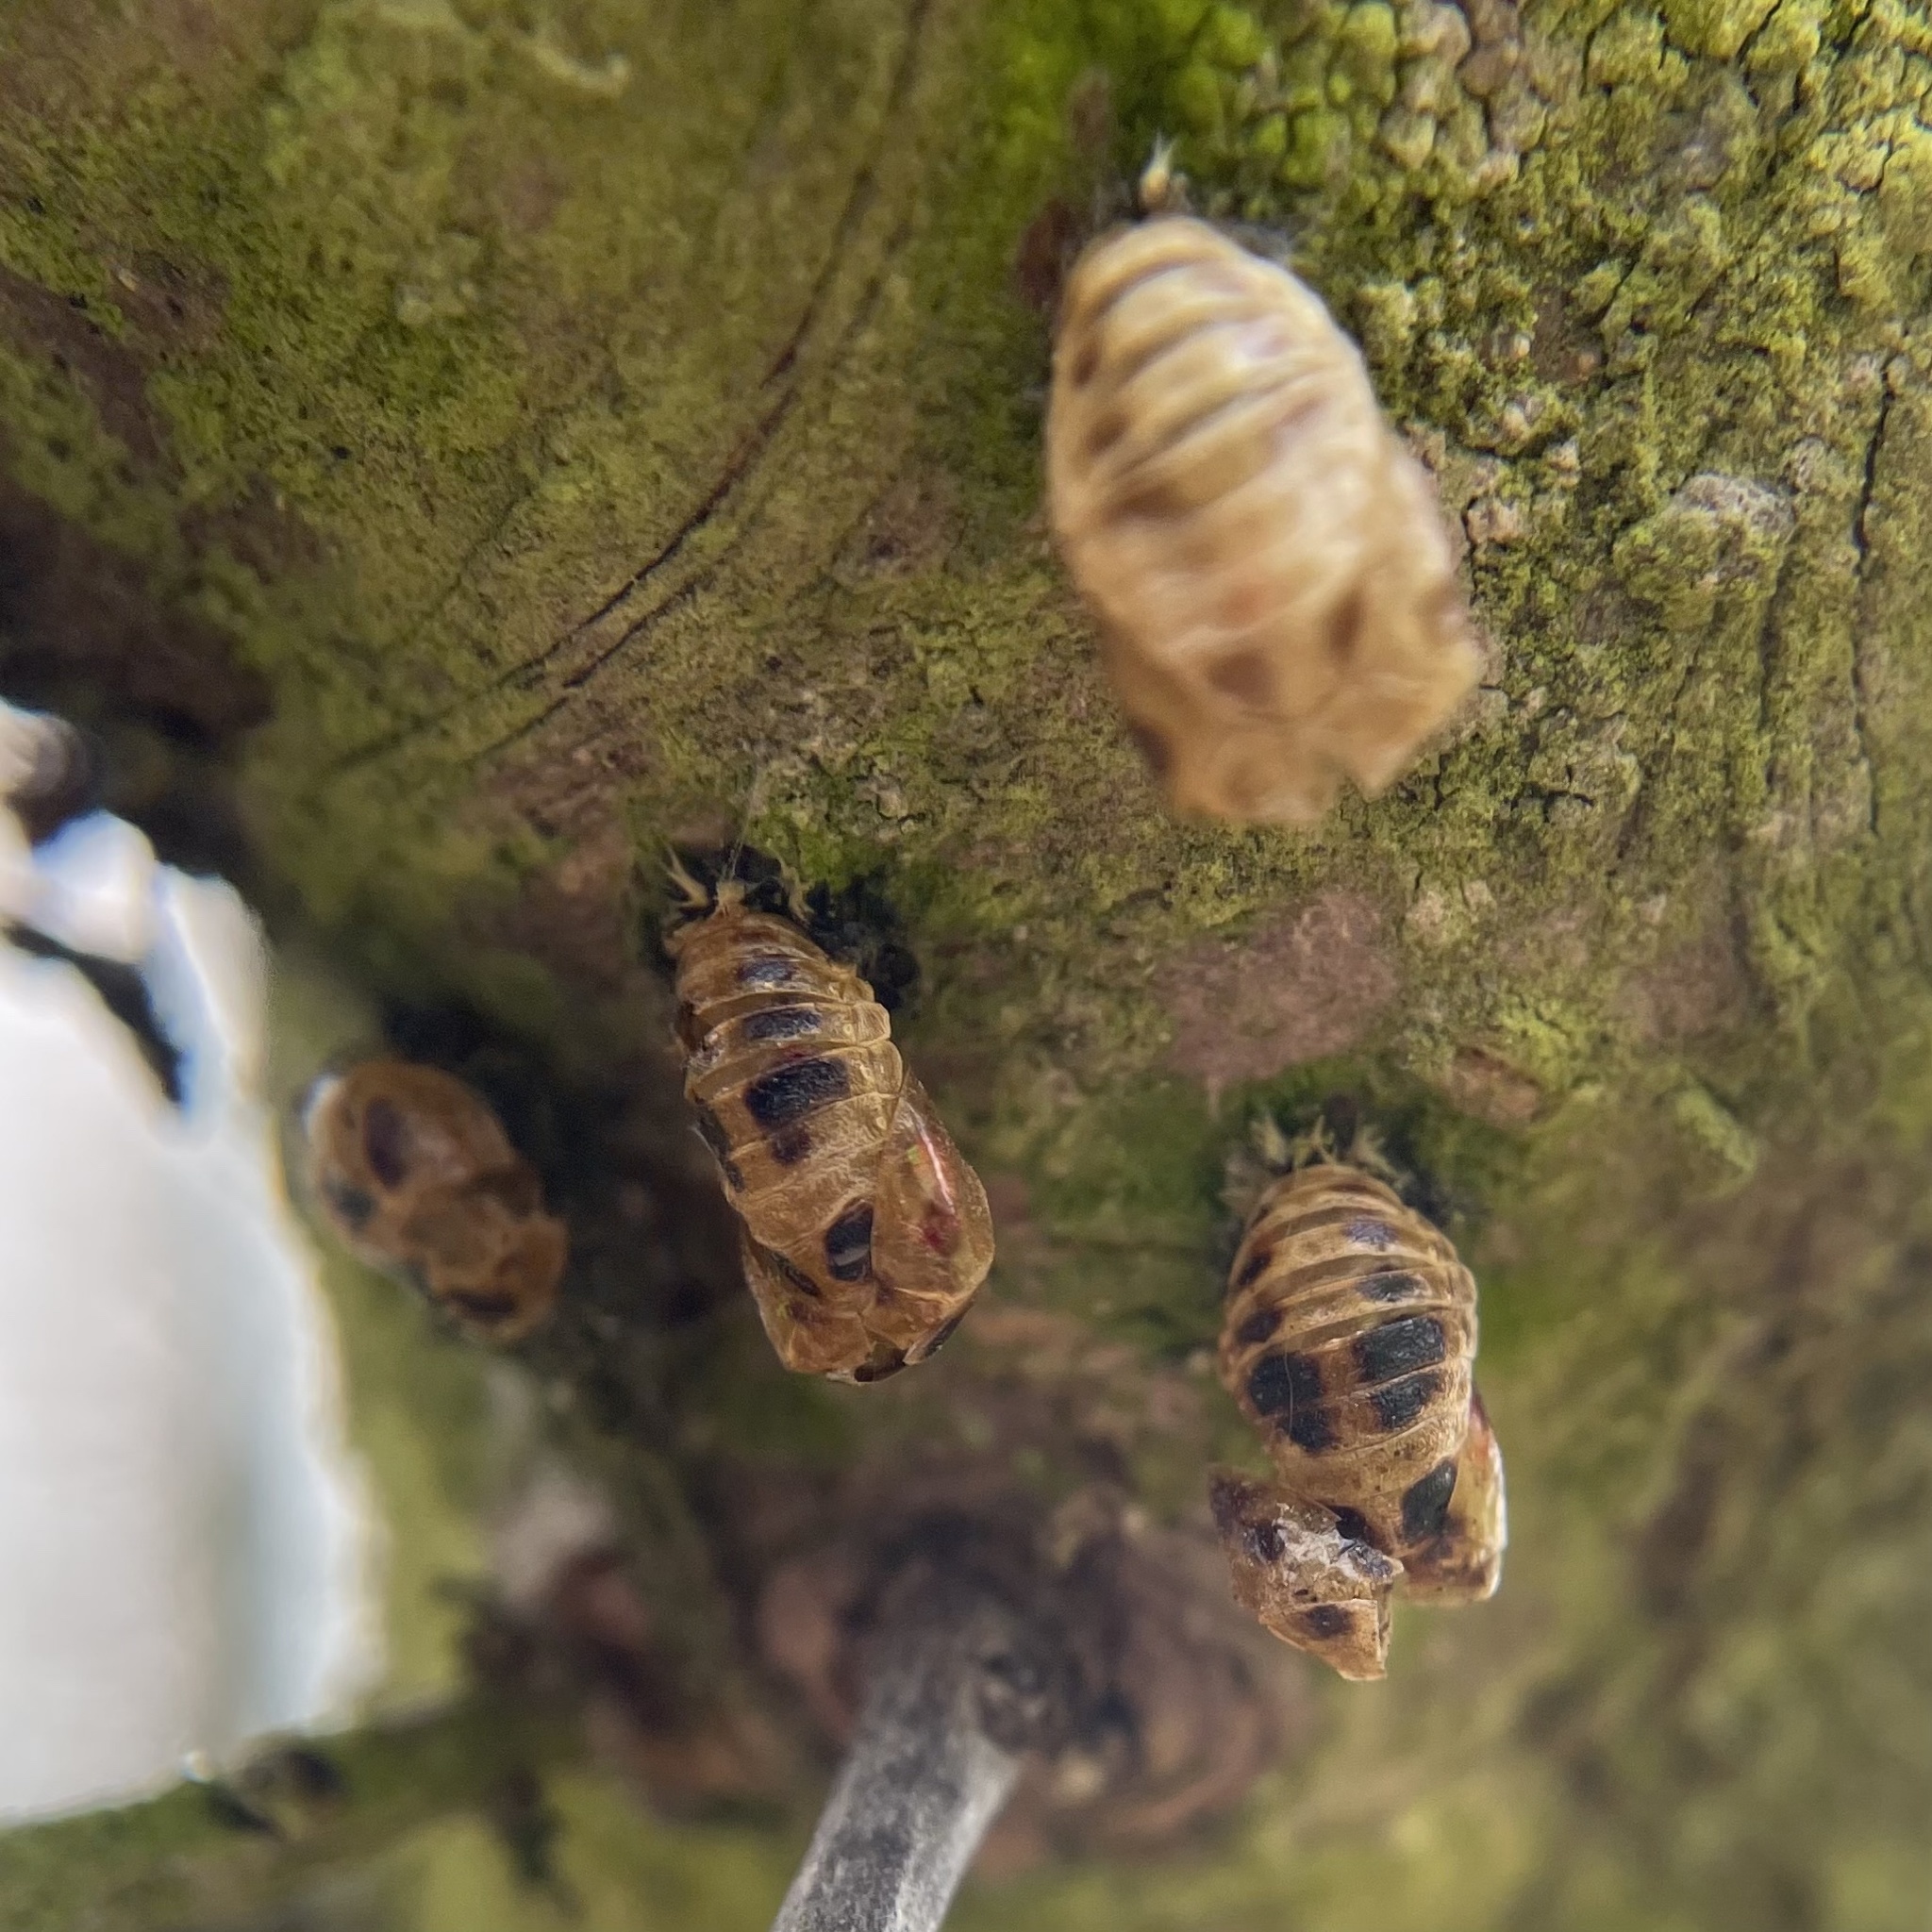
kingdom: Animalia
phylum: Arthropoda
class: Insecta
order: Coleoptera
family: Coccinellidae
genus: Harmonia
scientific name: Harmonia axyridis
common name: Harlequin ladybird
